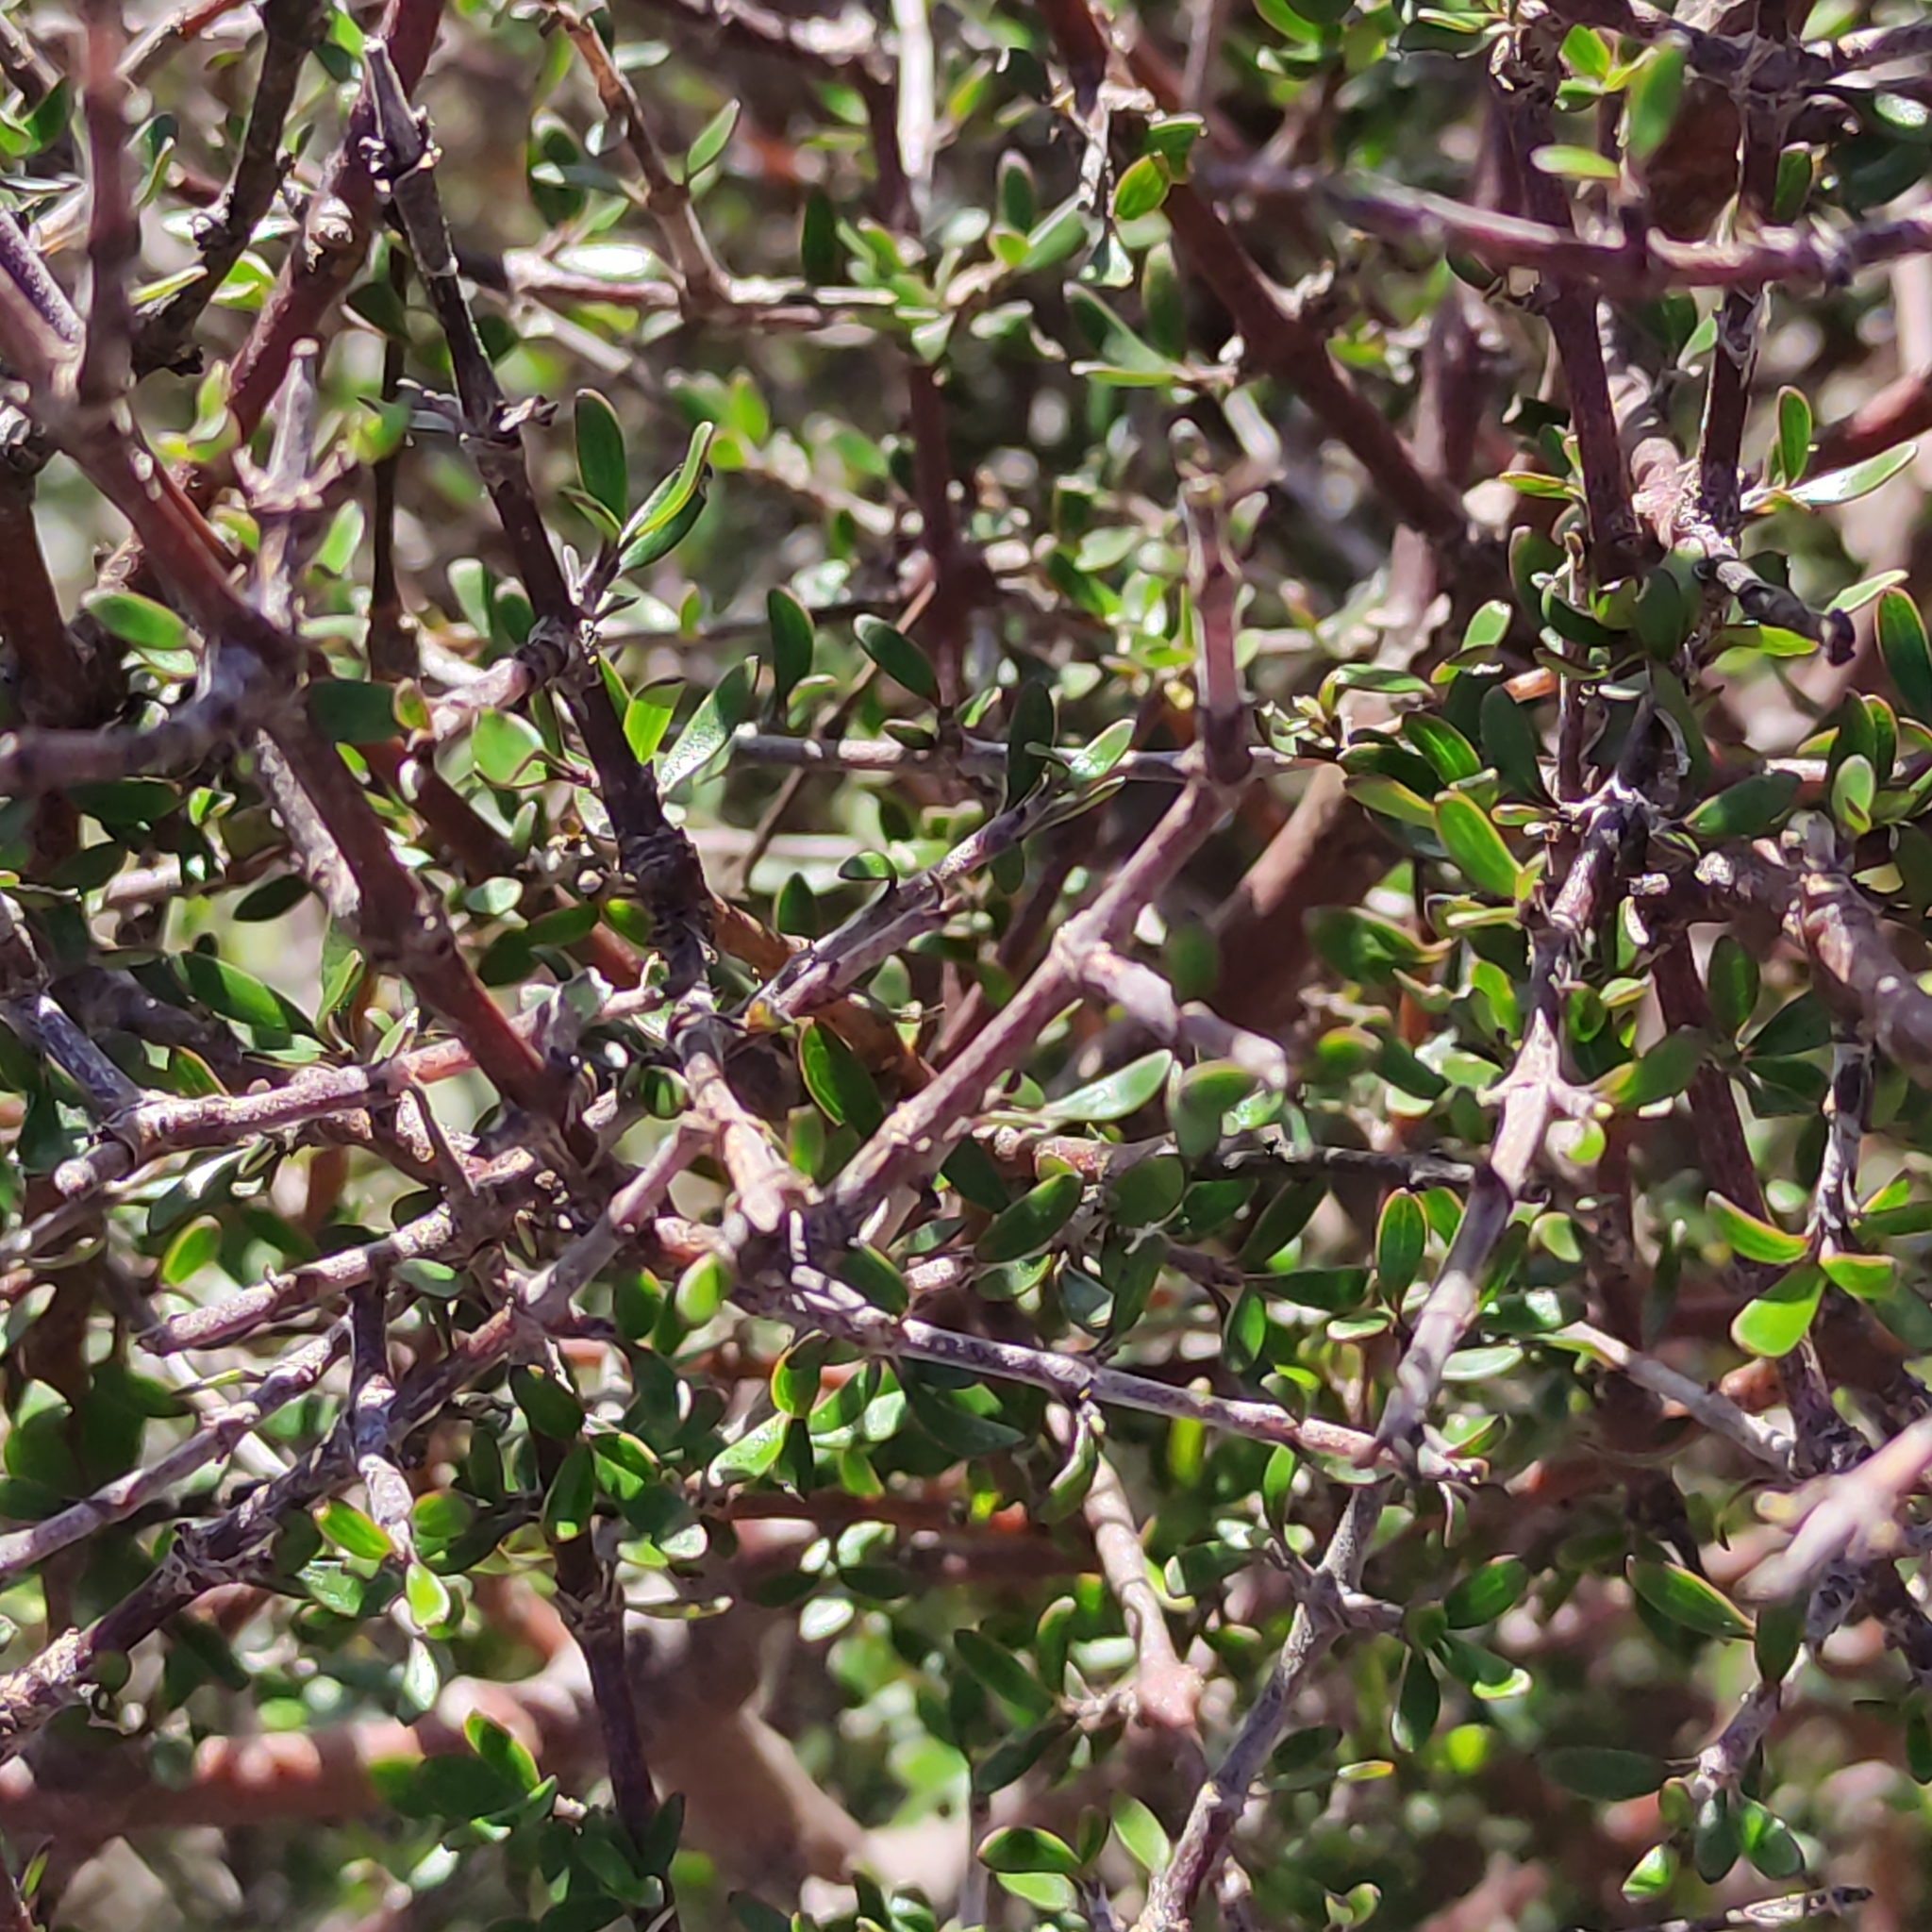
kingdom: Plantae
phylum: Tracheophyta
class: Magnoliopsida
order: Gentianales
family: Rubiaceae
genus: Coprosma
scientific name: Coprosma propinqua
